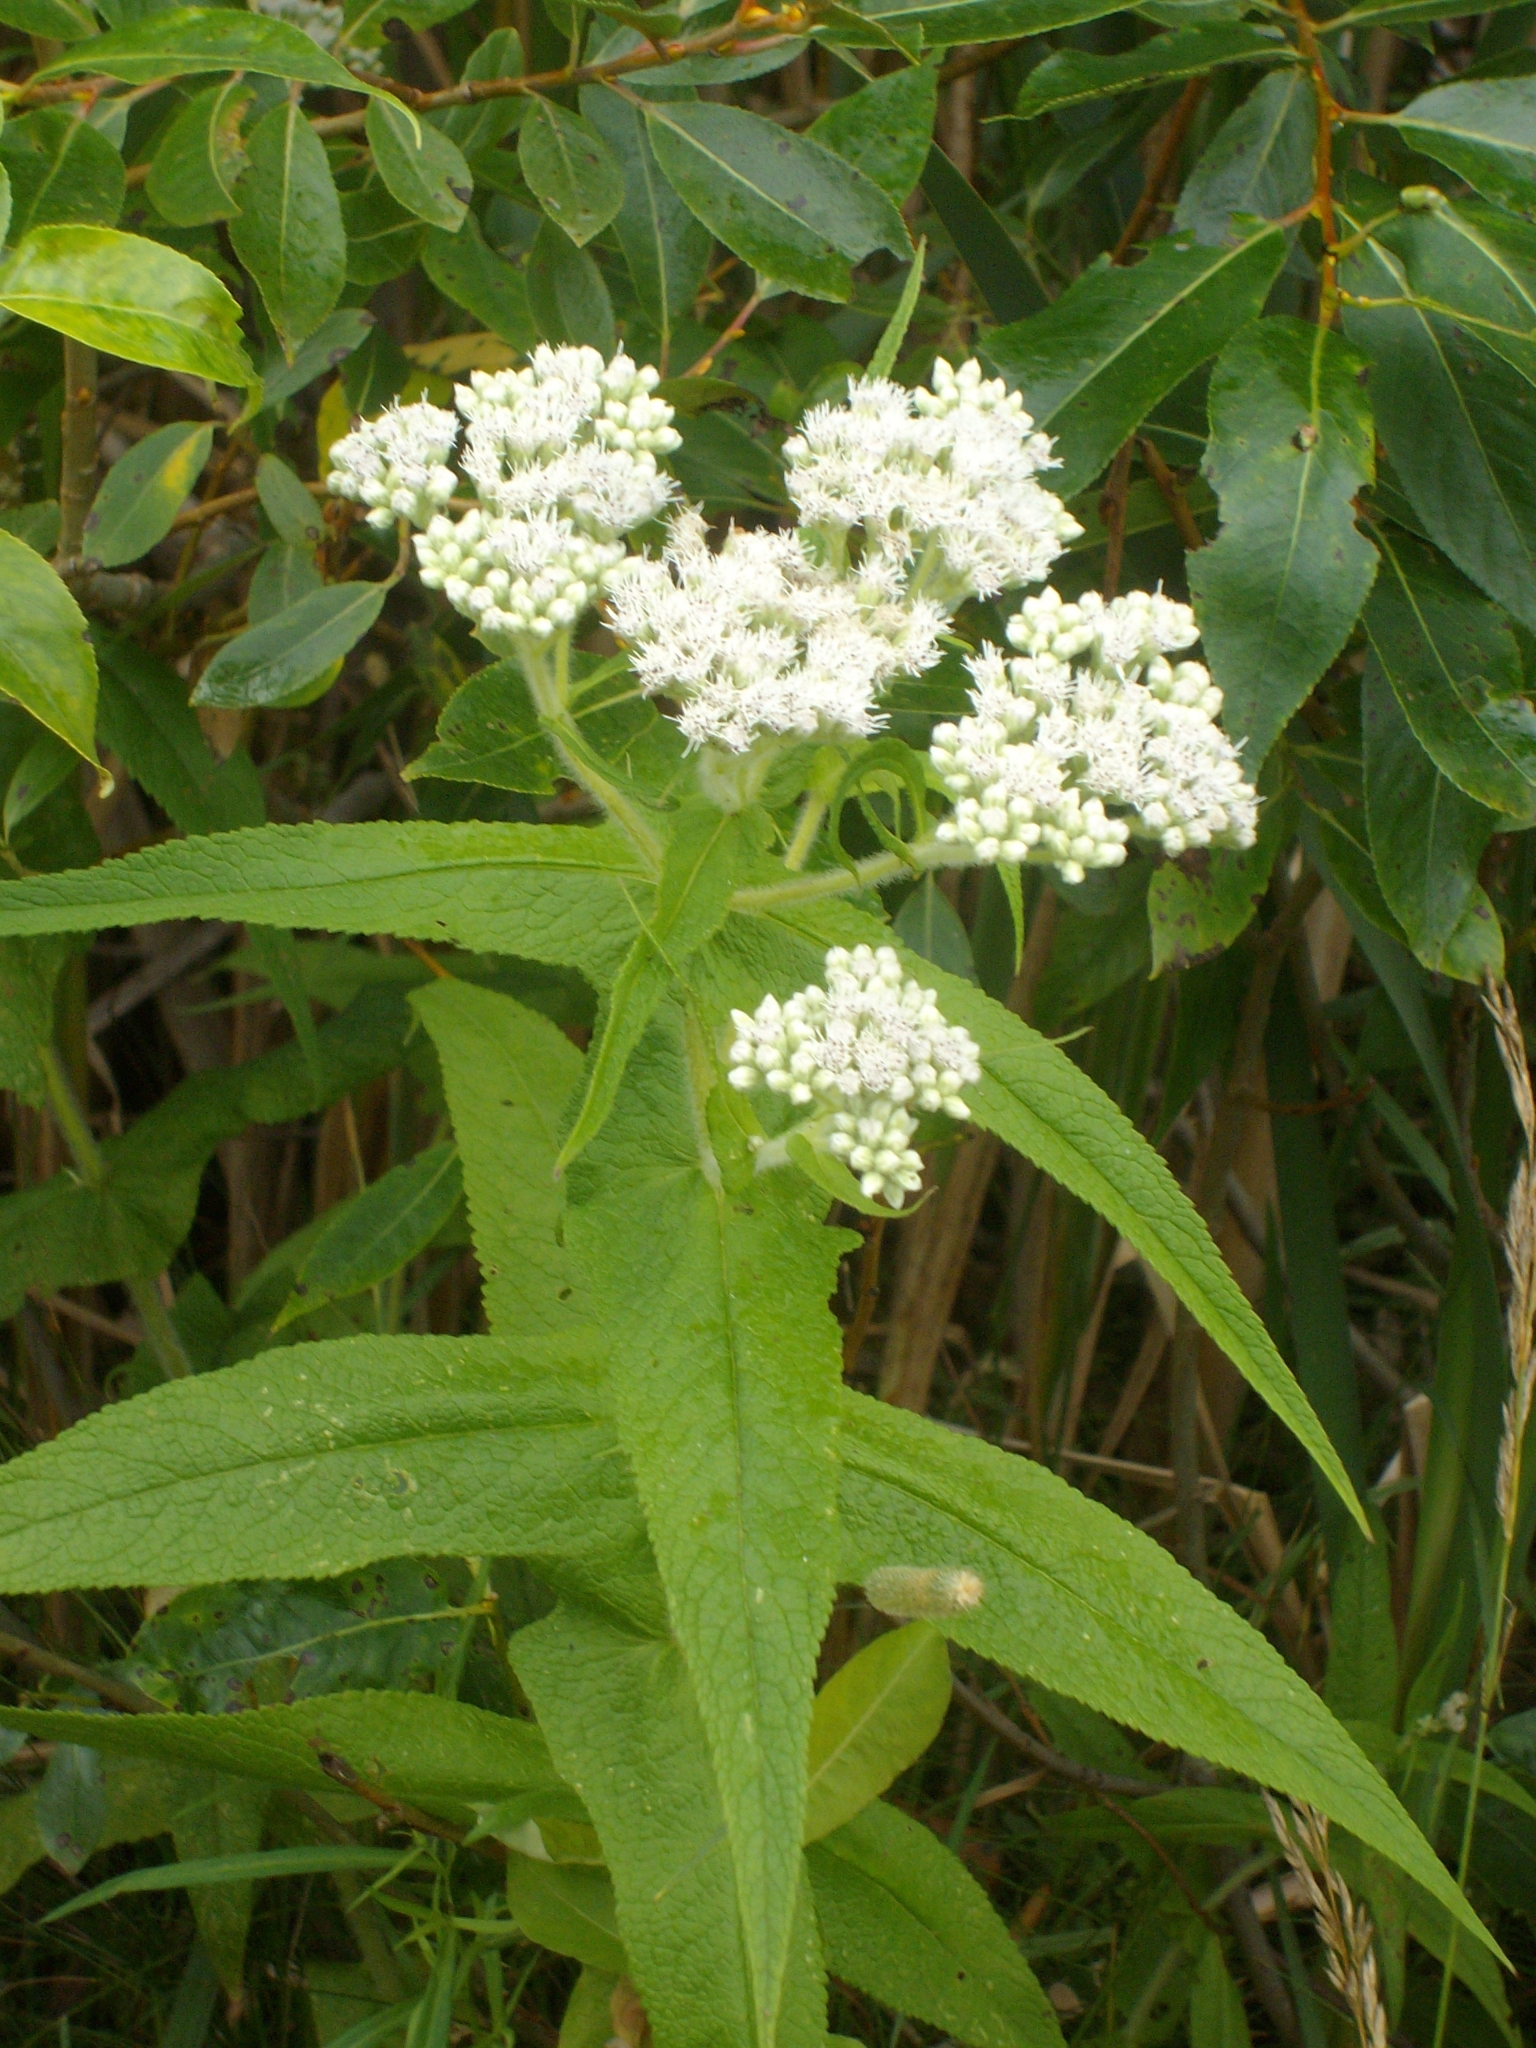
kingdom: Plantae
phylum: Tracheophyta
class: Magnoliopsida
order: Asterales
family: Asteraceae
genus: Eupatorium
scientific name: Eupatorium perfoliatum
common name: Boneset
